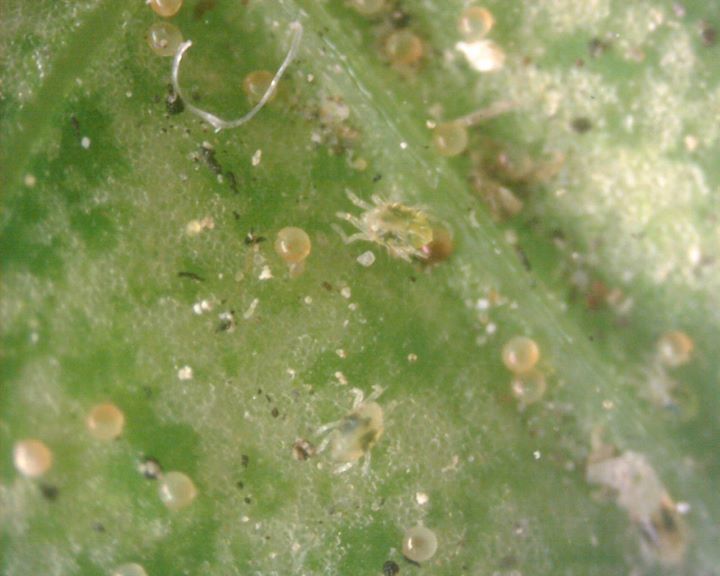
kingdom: Animalia
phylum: Arthropoda
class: Arachnida
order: Trombidiformes
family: Tetranychidae
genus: Tetranychus
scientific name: Tetranychus urticae
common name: Carmine spider mite
